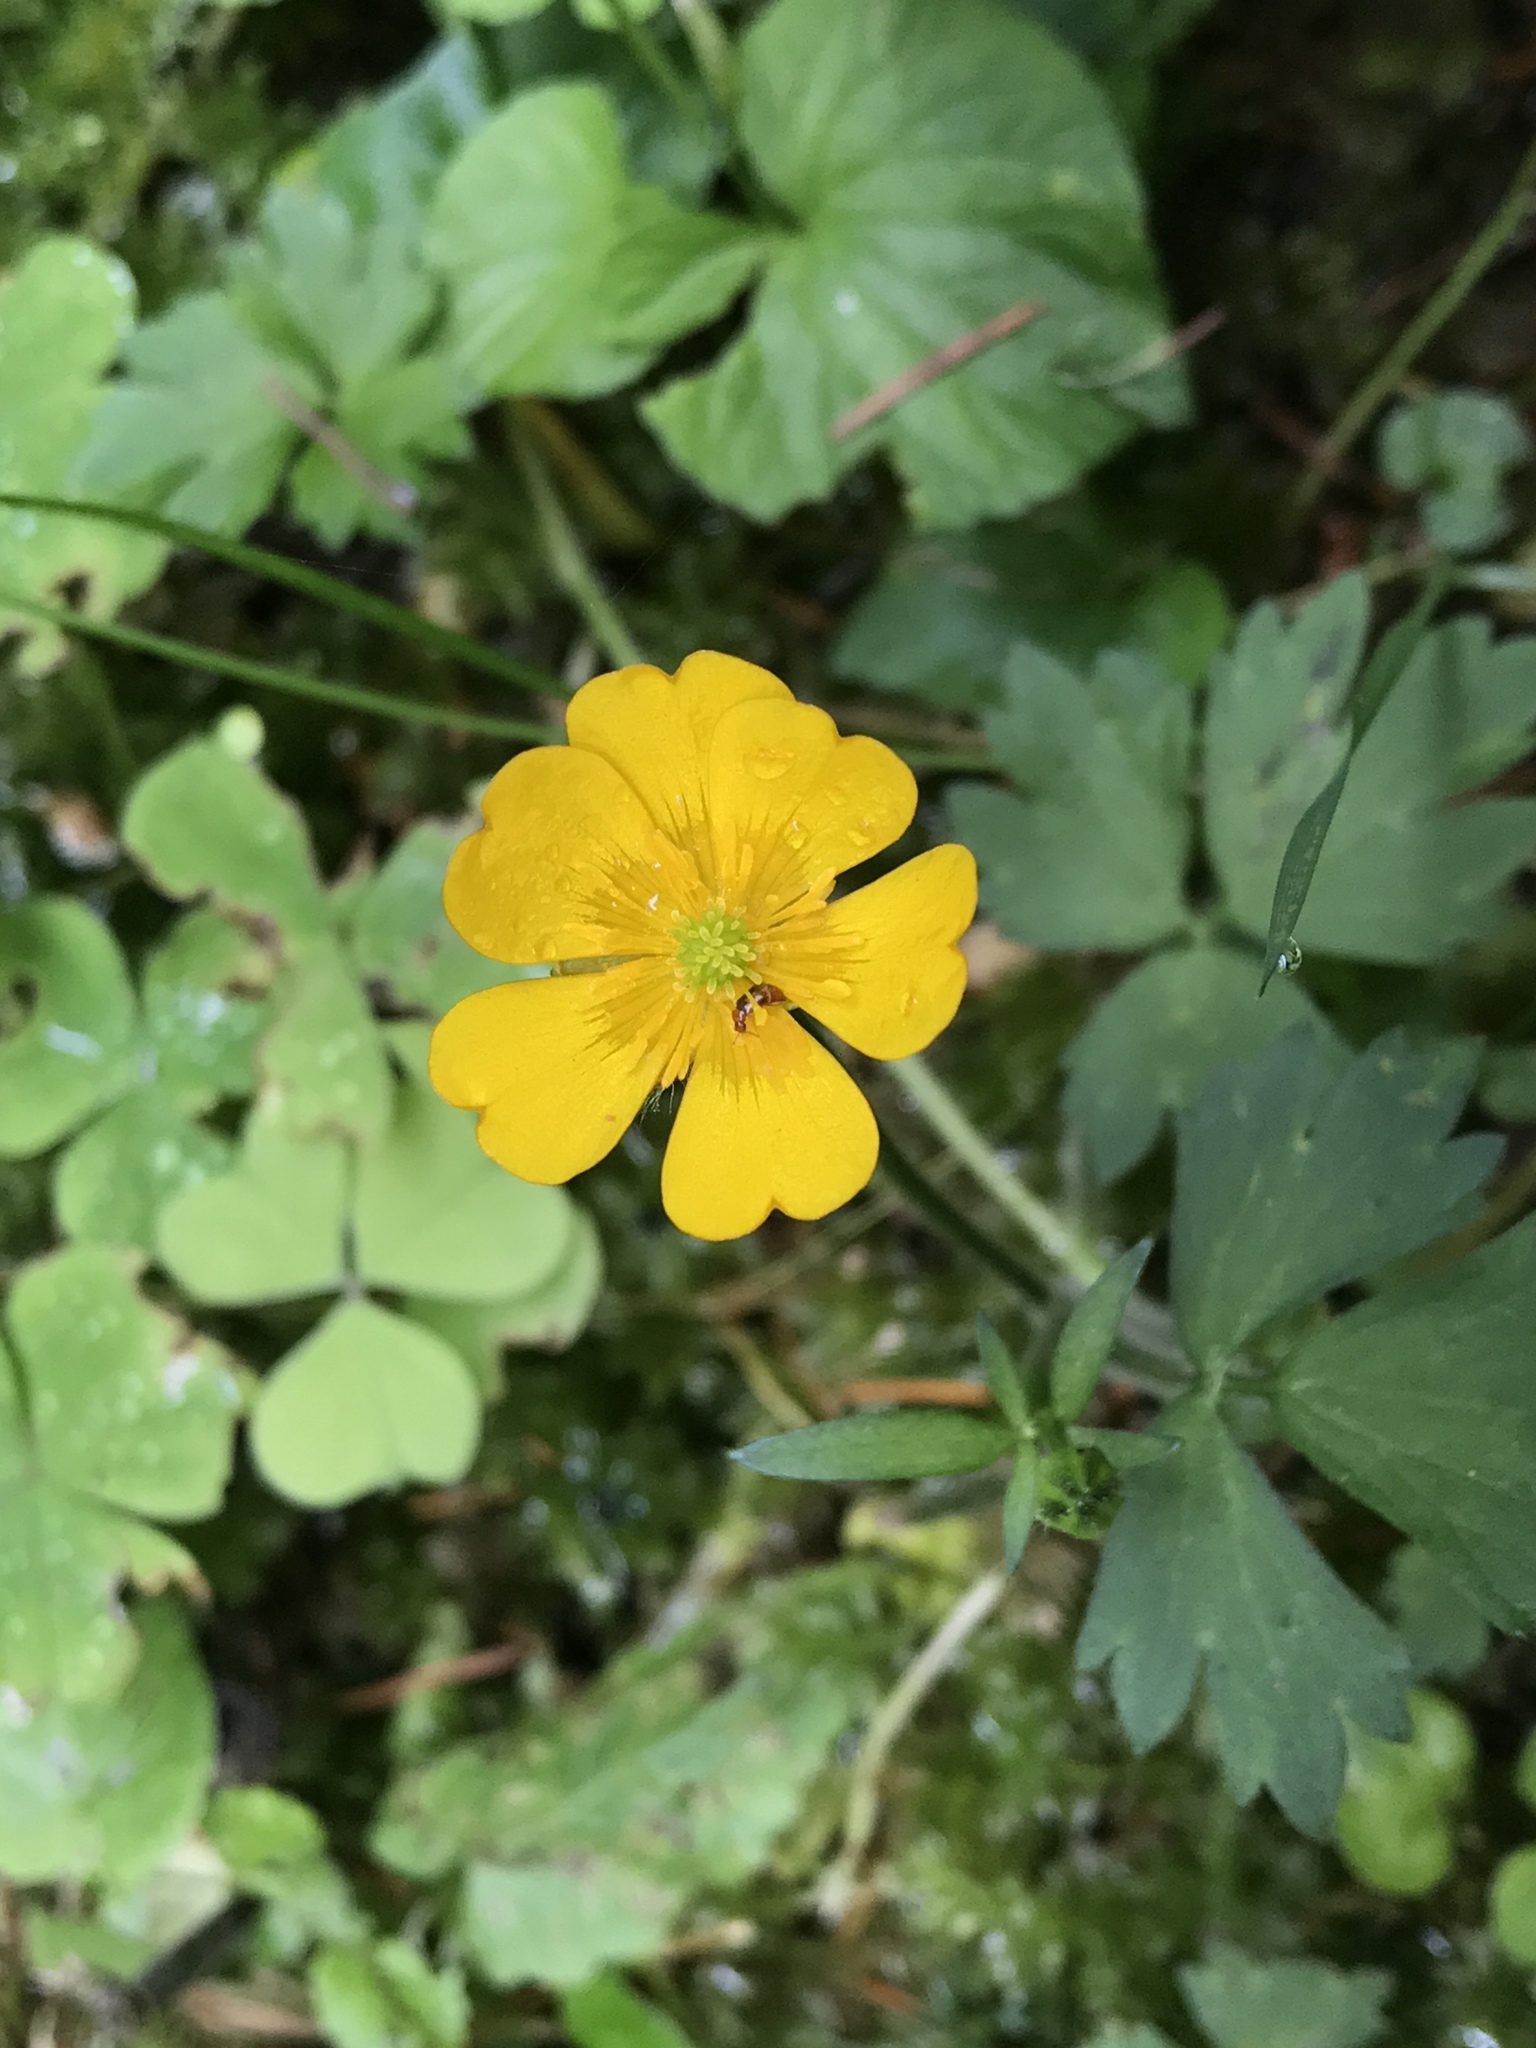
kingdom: Plantae
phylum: Tracheophyta
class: Magnoliopsida
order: Ranunculales
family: Ranunculaceae
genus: Ranunculus
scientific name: Ranunculus repens
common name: Creeping buttercup
